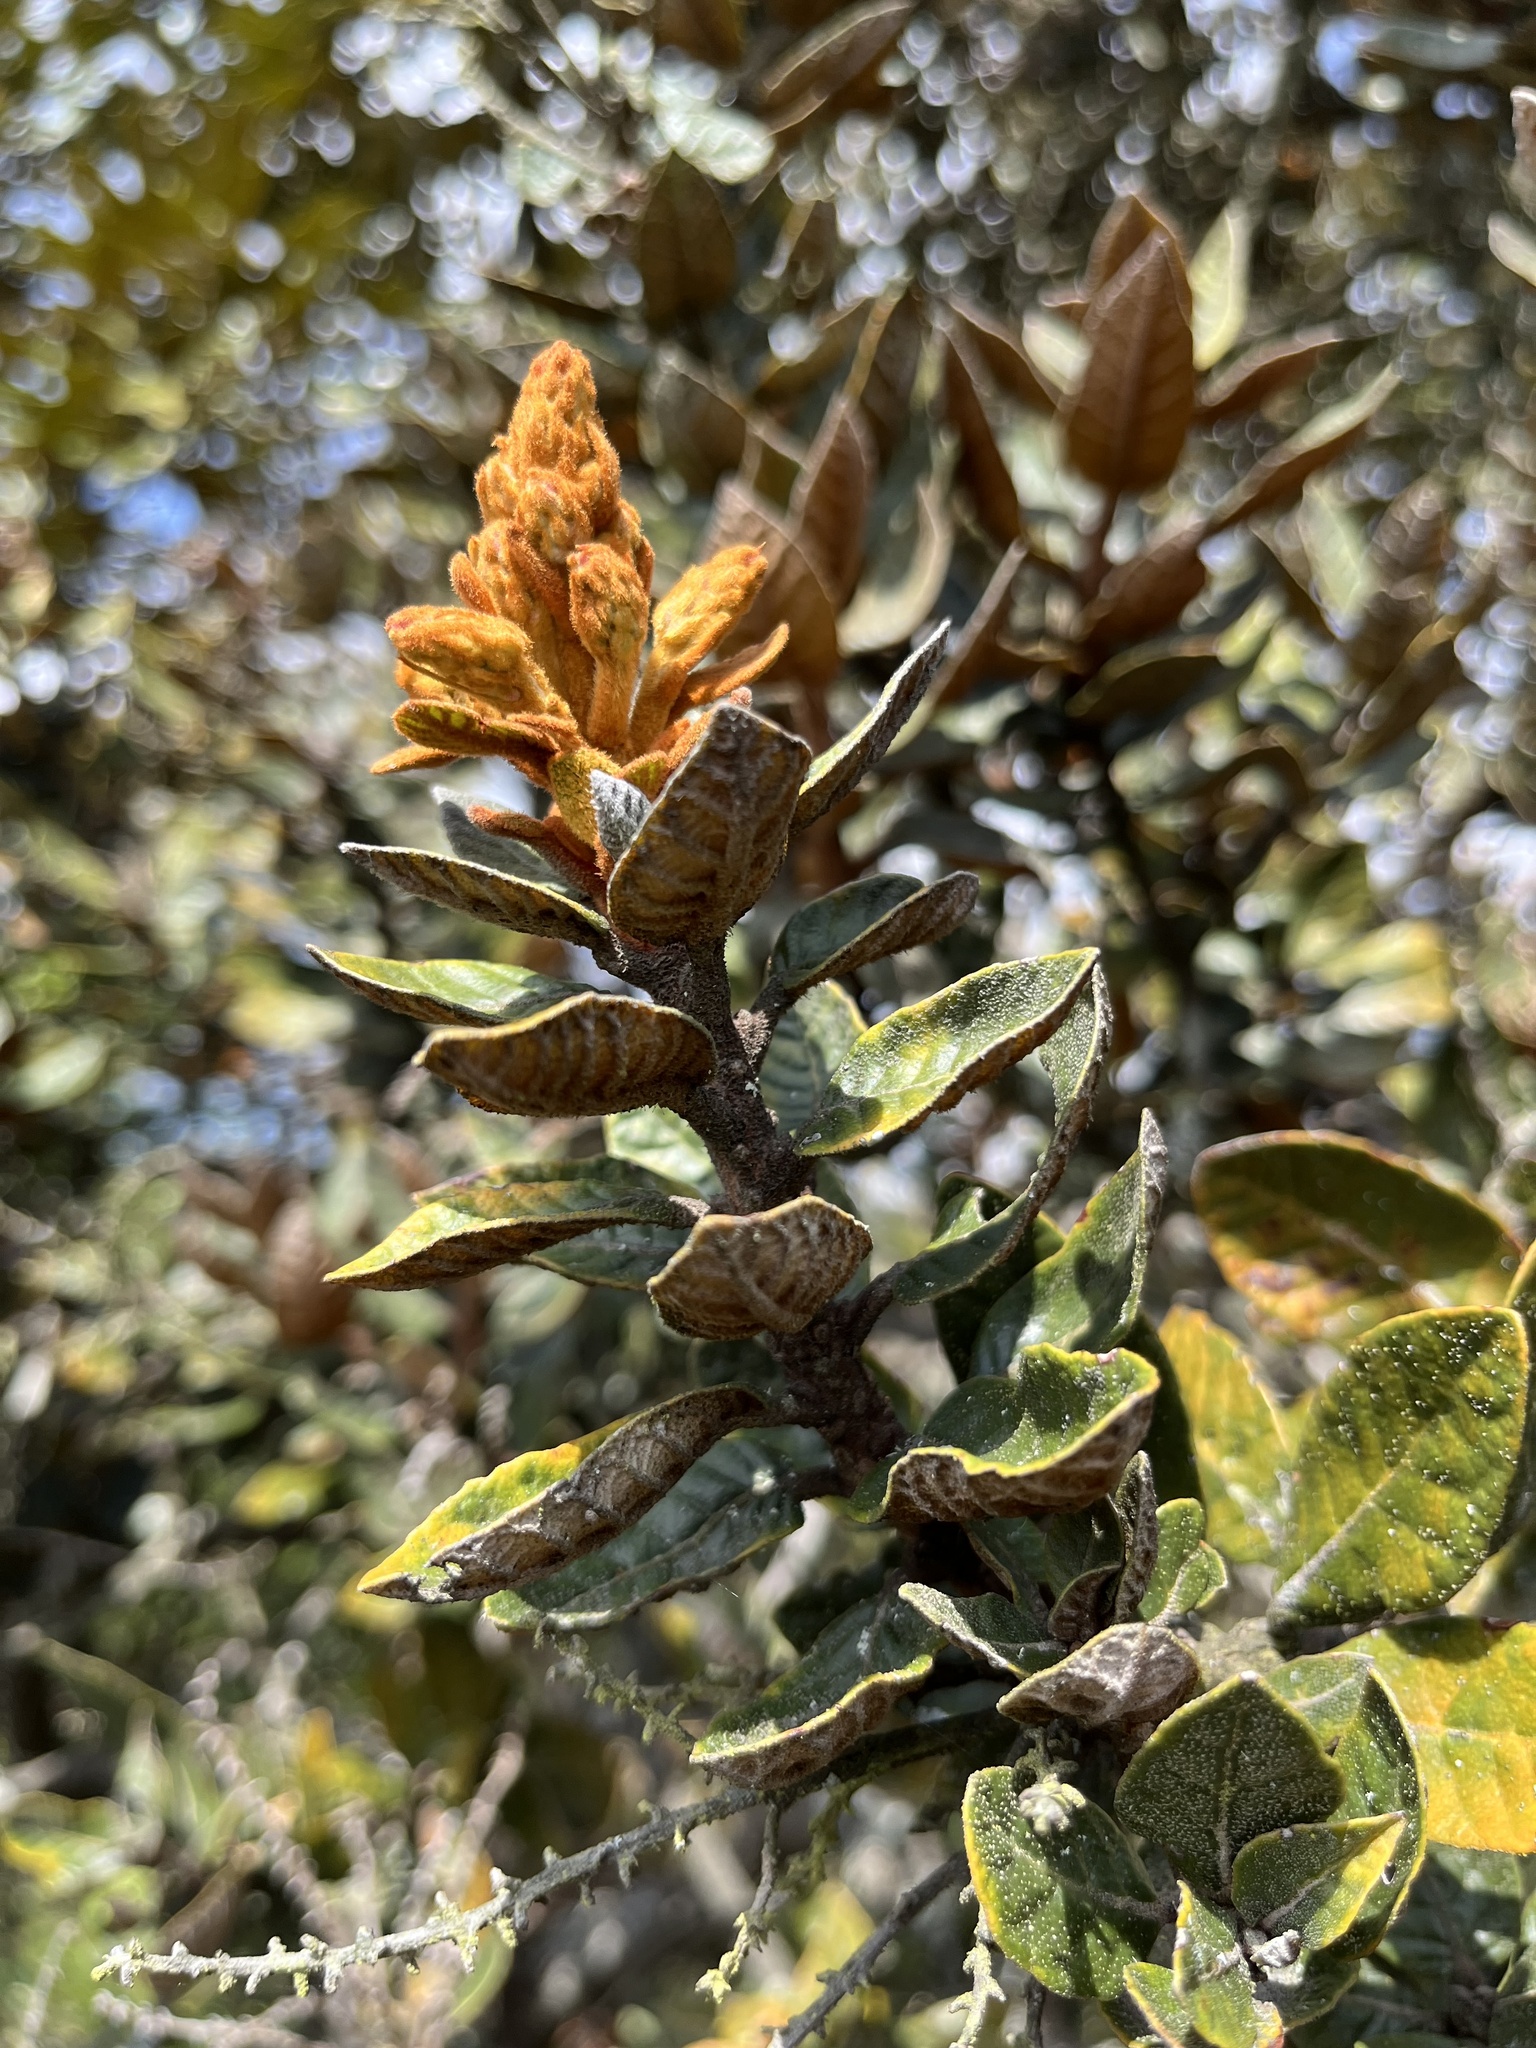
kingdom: Plantae
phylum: Tracheophyta
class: Magnoliopsida
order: Ericales
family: Clethraceae
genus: Clethra
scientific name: Clethra fimbriata
